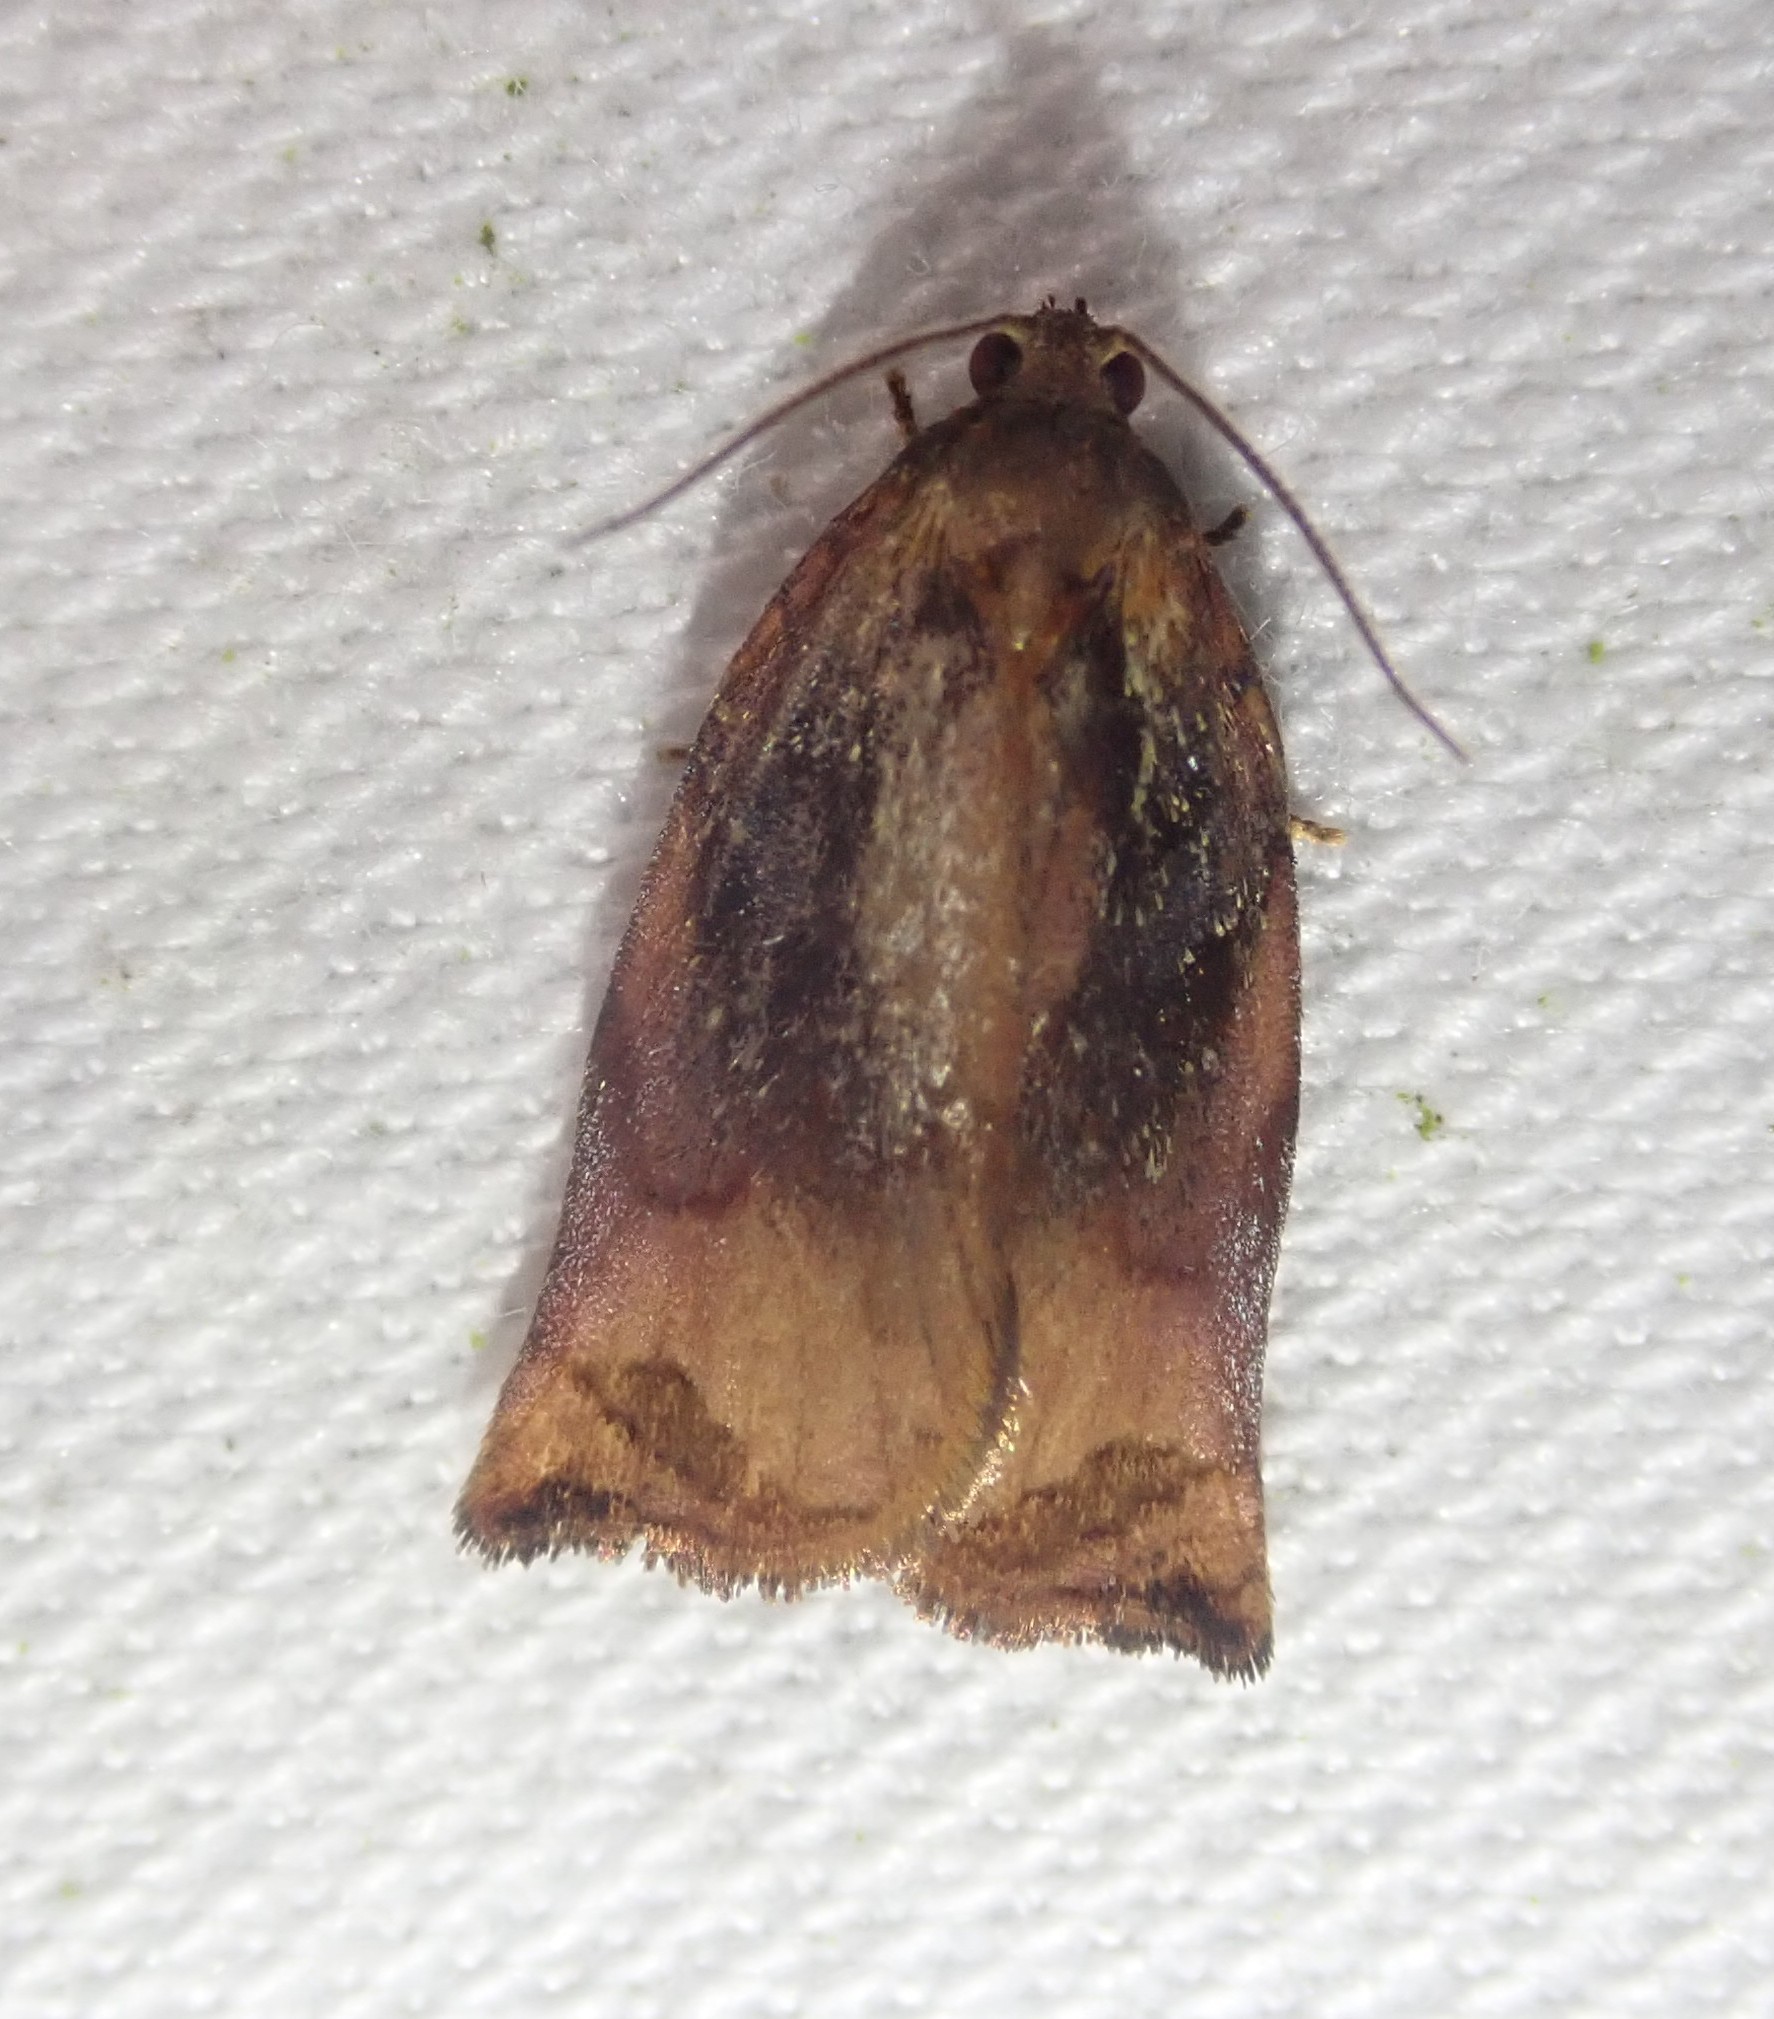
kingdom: Animalia
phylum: Arthropoda
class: Insecta
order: Lepidoptera
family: Tortricidae
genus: Archips
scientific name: Archips podana
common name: Large fruit-tree tortrix
